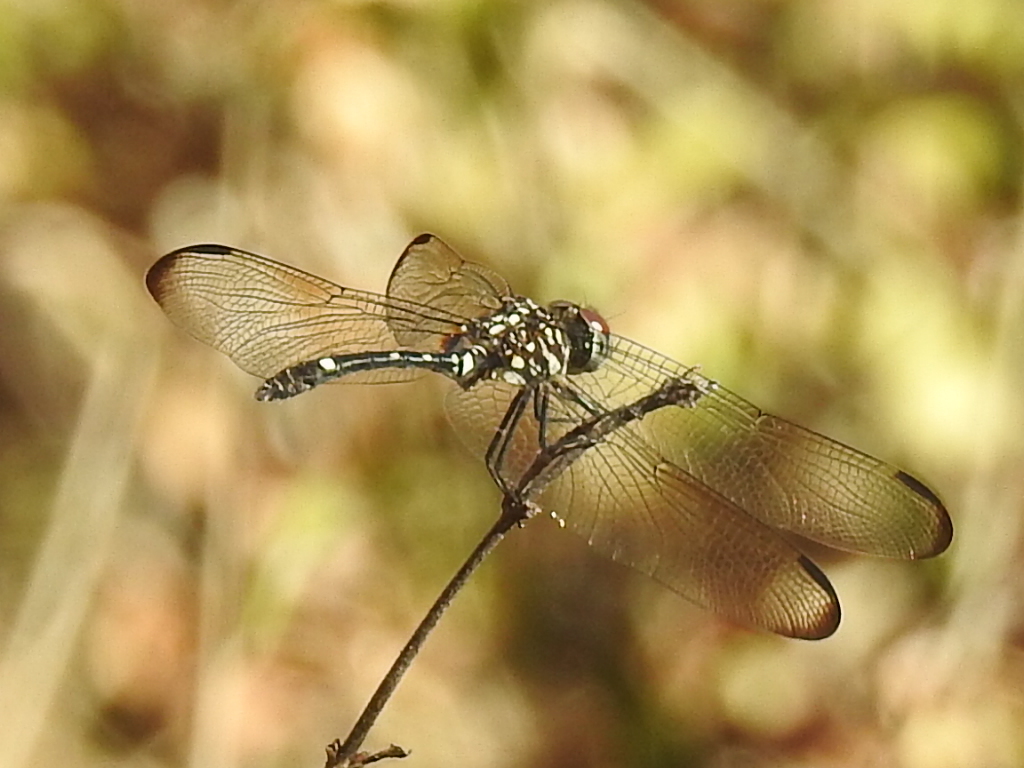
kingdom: Animalia
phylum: Arthropoda
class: Insecta
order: Odonata
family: Libellulidae
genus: Dythemis
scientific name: Dythemis velox
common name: Swift setwing
